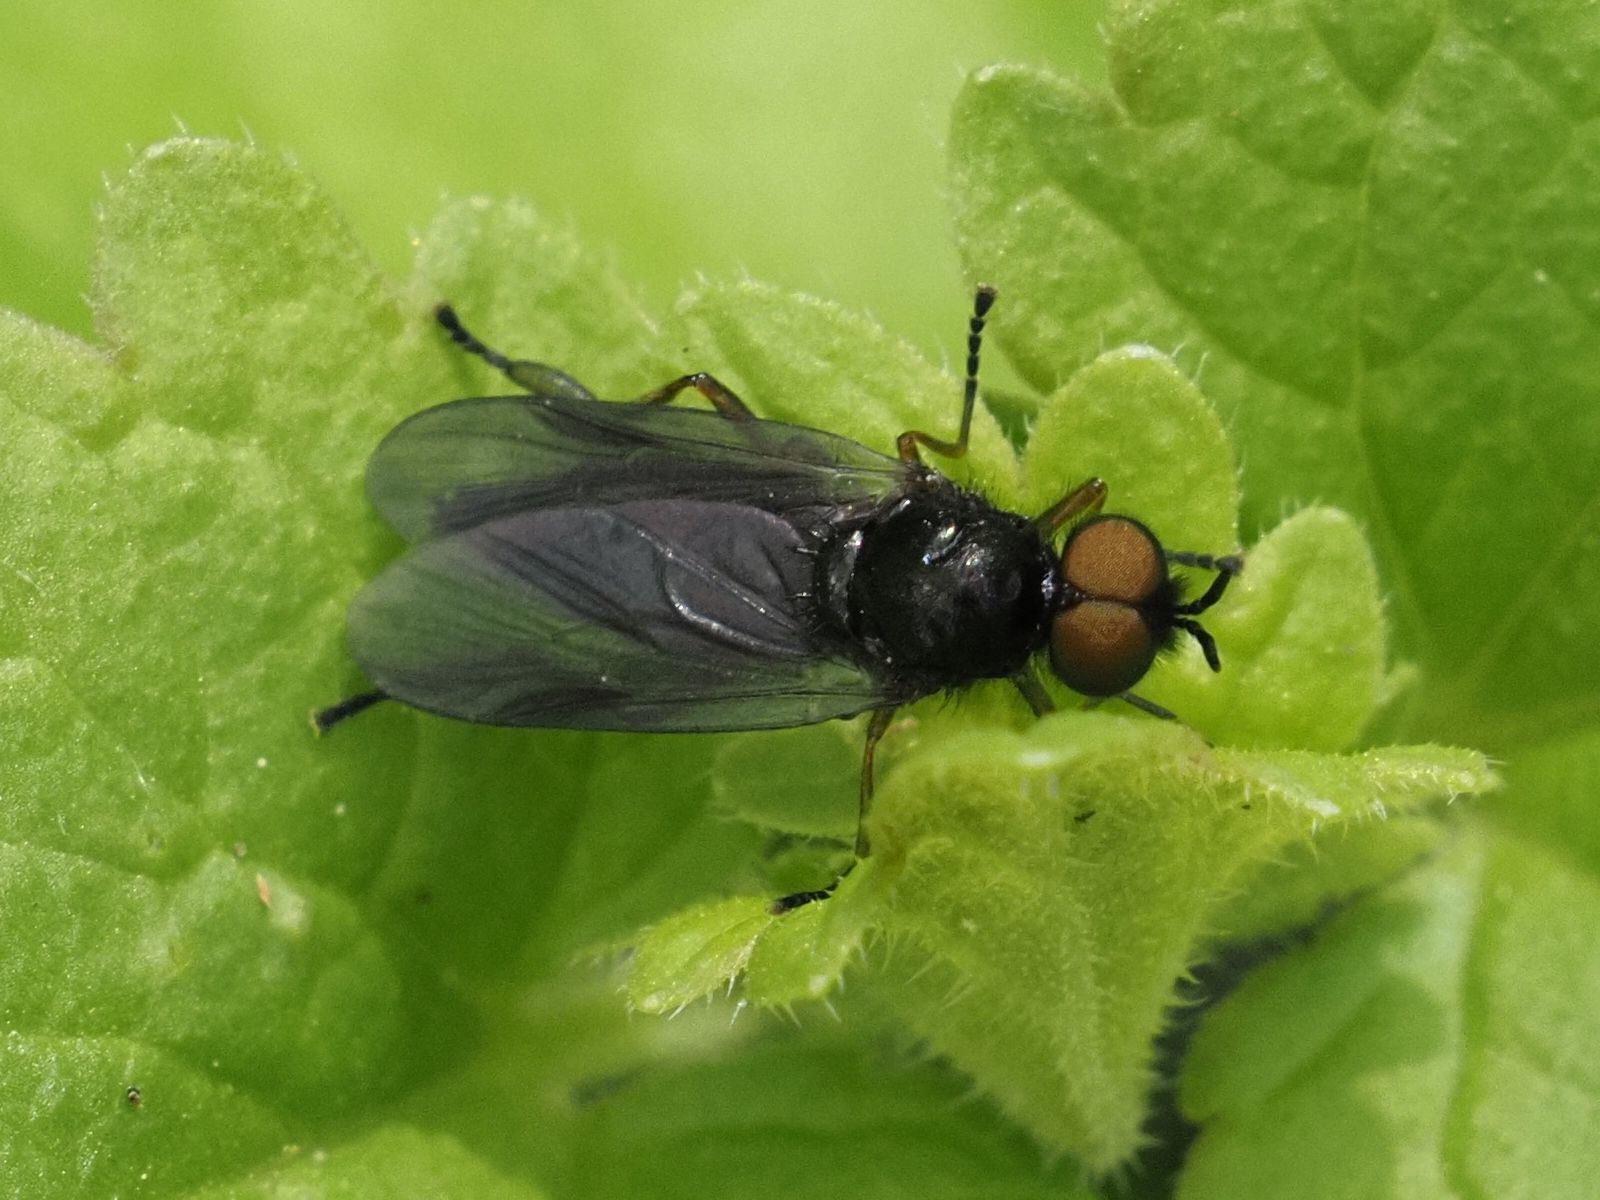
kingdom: Animalia
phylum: Arthropoda
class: Insecta
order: Diptera
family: Stratiomyidae
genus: Beris
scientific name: Beris chalybata
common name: Murky-legged black legionnaire
